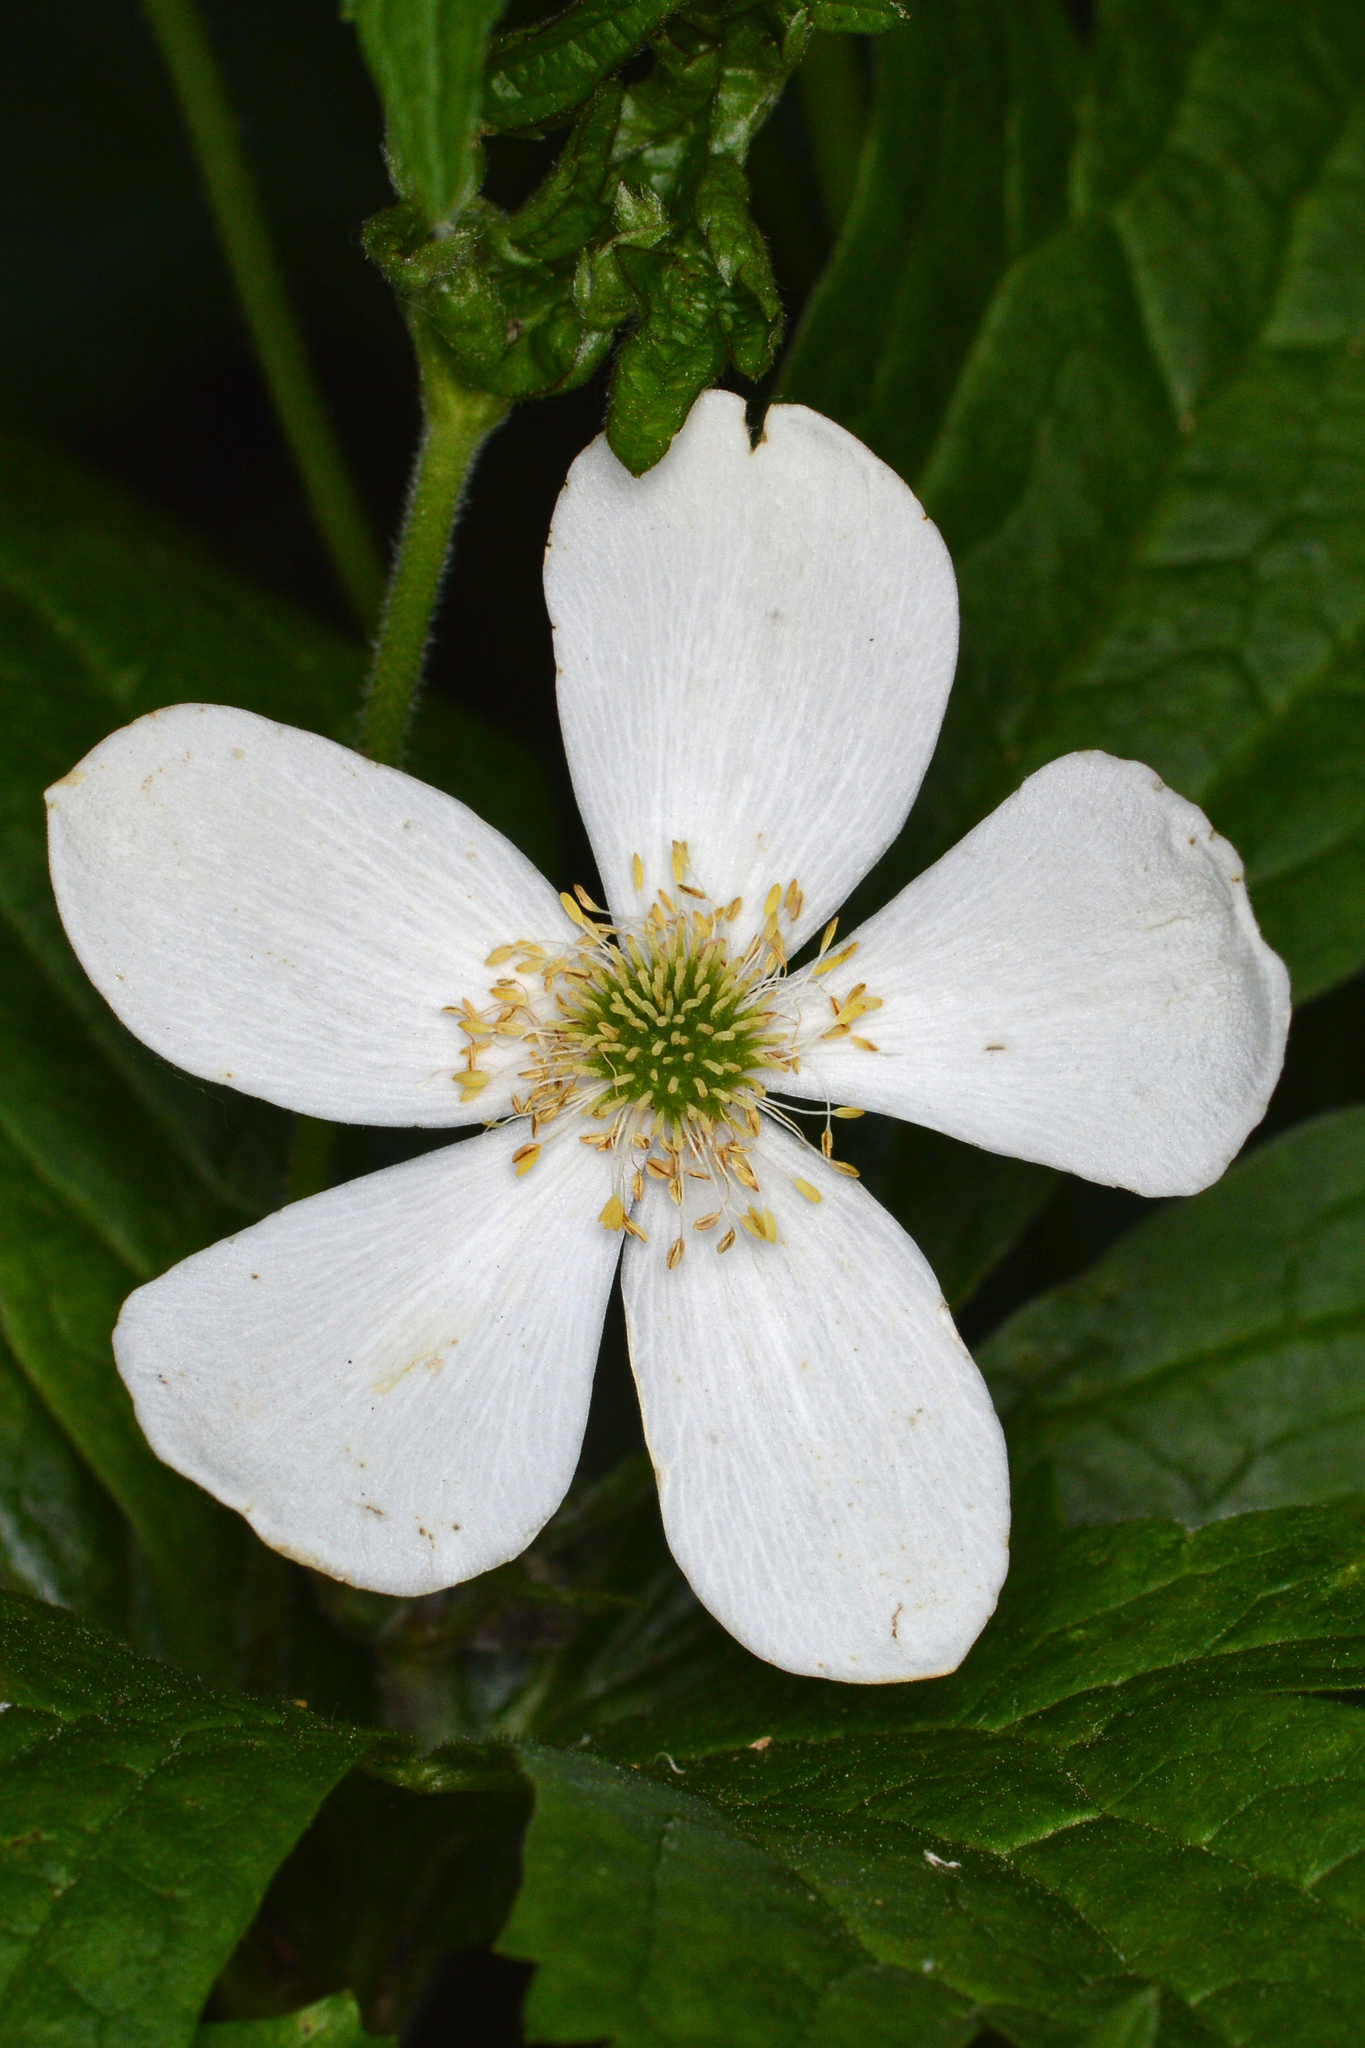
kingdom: Plantae
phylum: Tracheophyta
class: Magnoliopsida
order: Ranunculales
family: Ranunculaceae
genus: Anemonastrum
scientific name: Anemonastrum canadense
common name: Canada anemone
